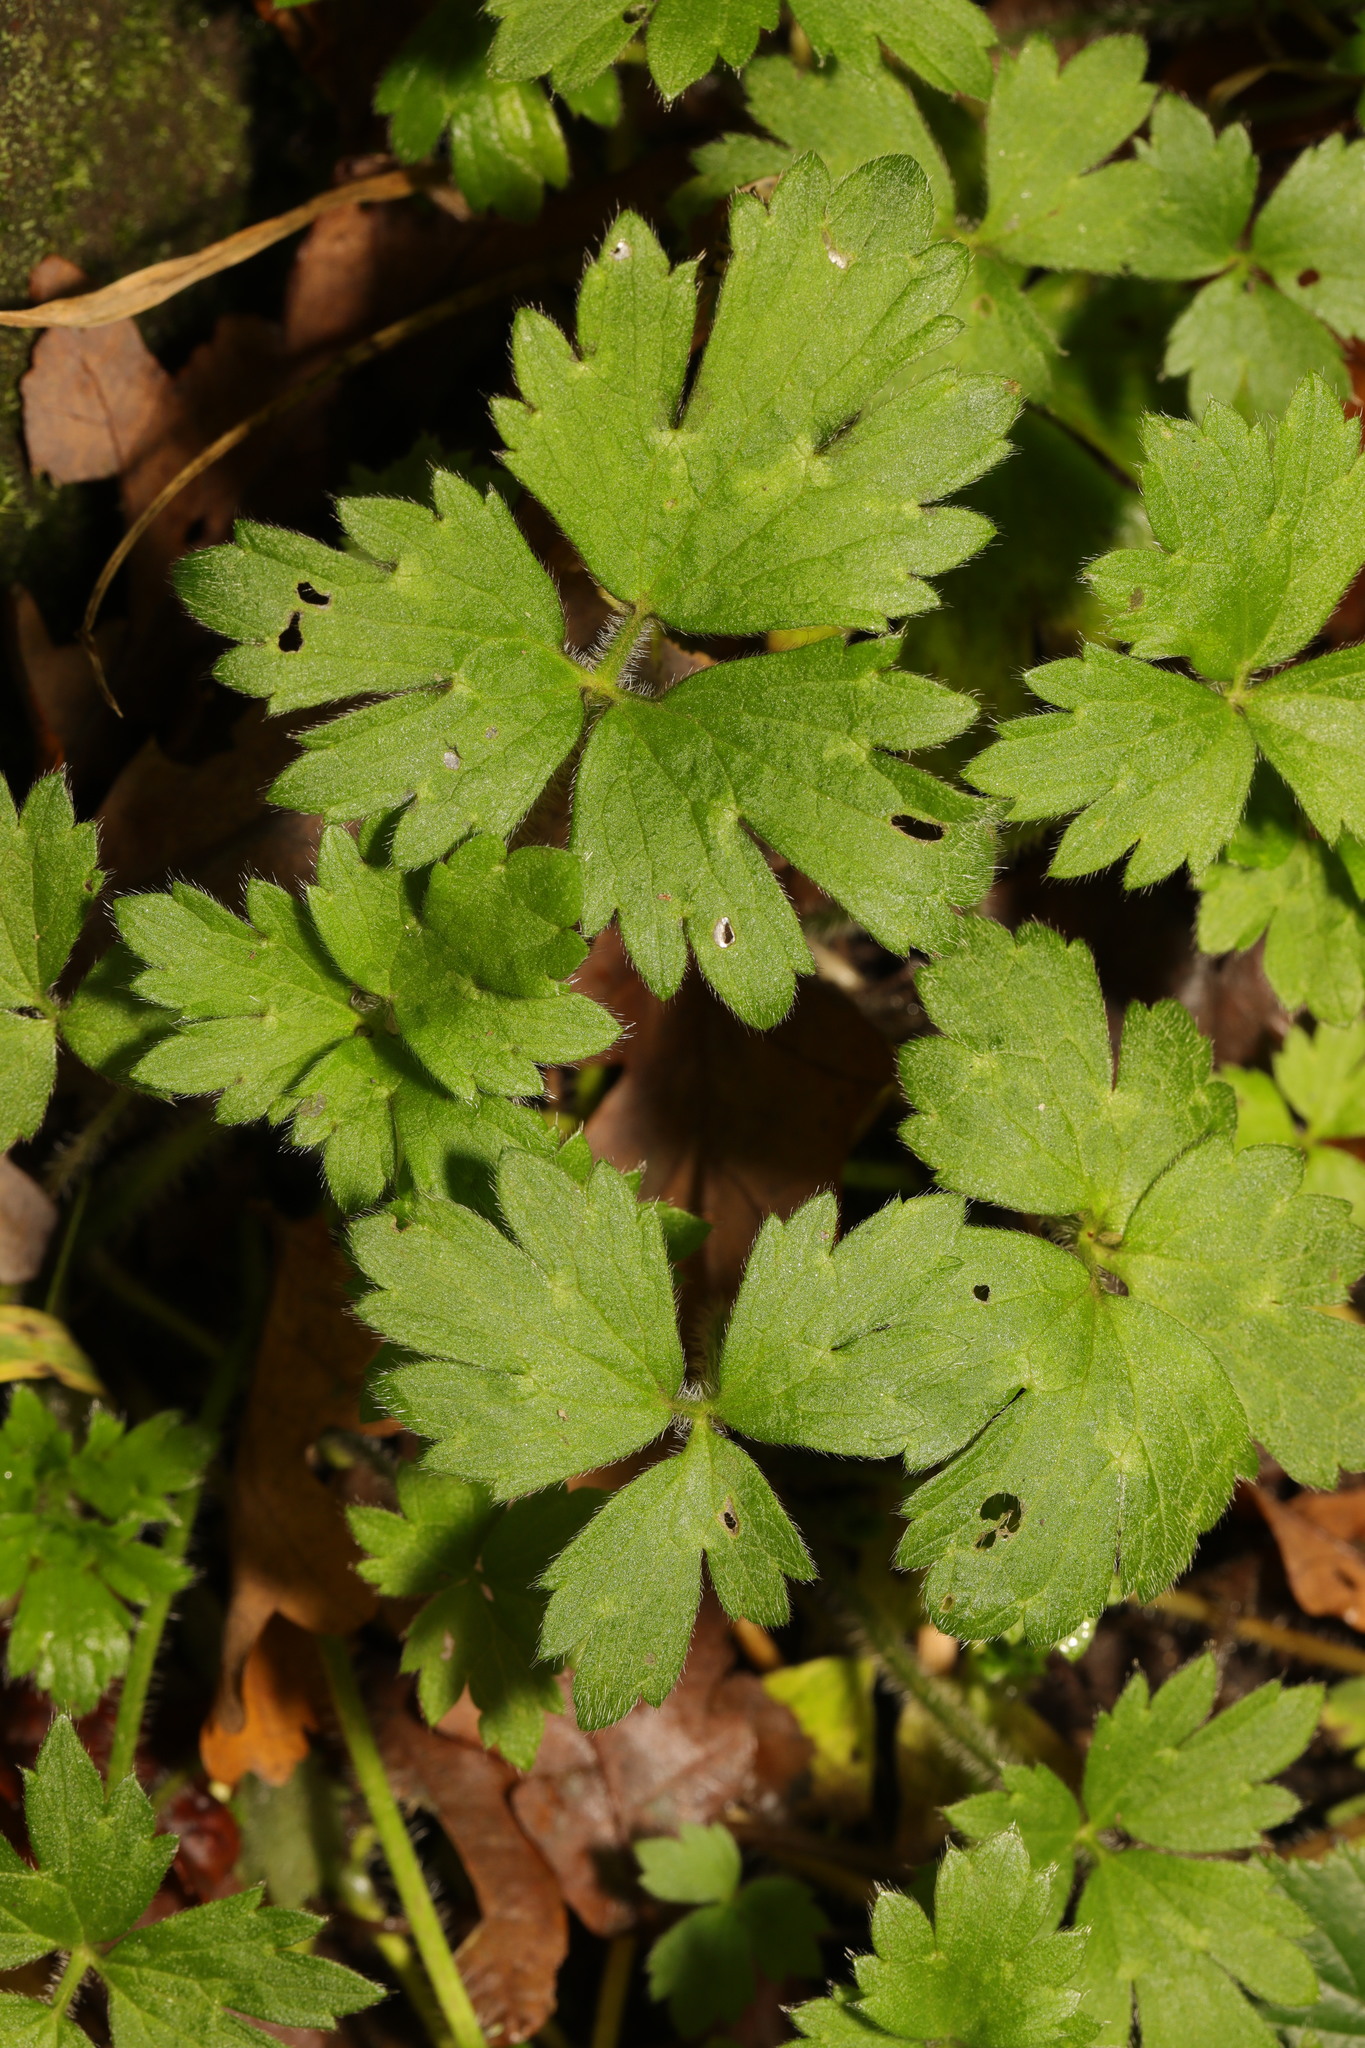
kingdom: Plantae
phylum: Tracheophyta
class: Magnoliopsida
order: Ranunculales
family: Ranunculaceae
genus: Ranunculus
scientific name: Ranunculus repens
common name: Creeping buttercup
